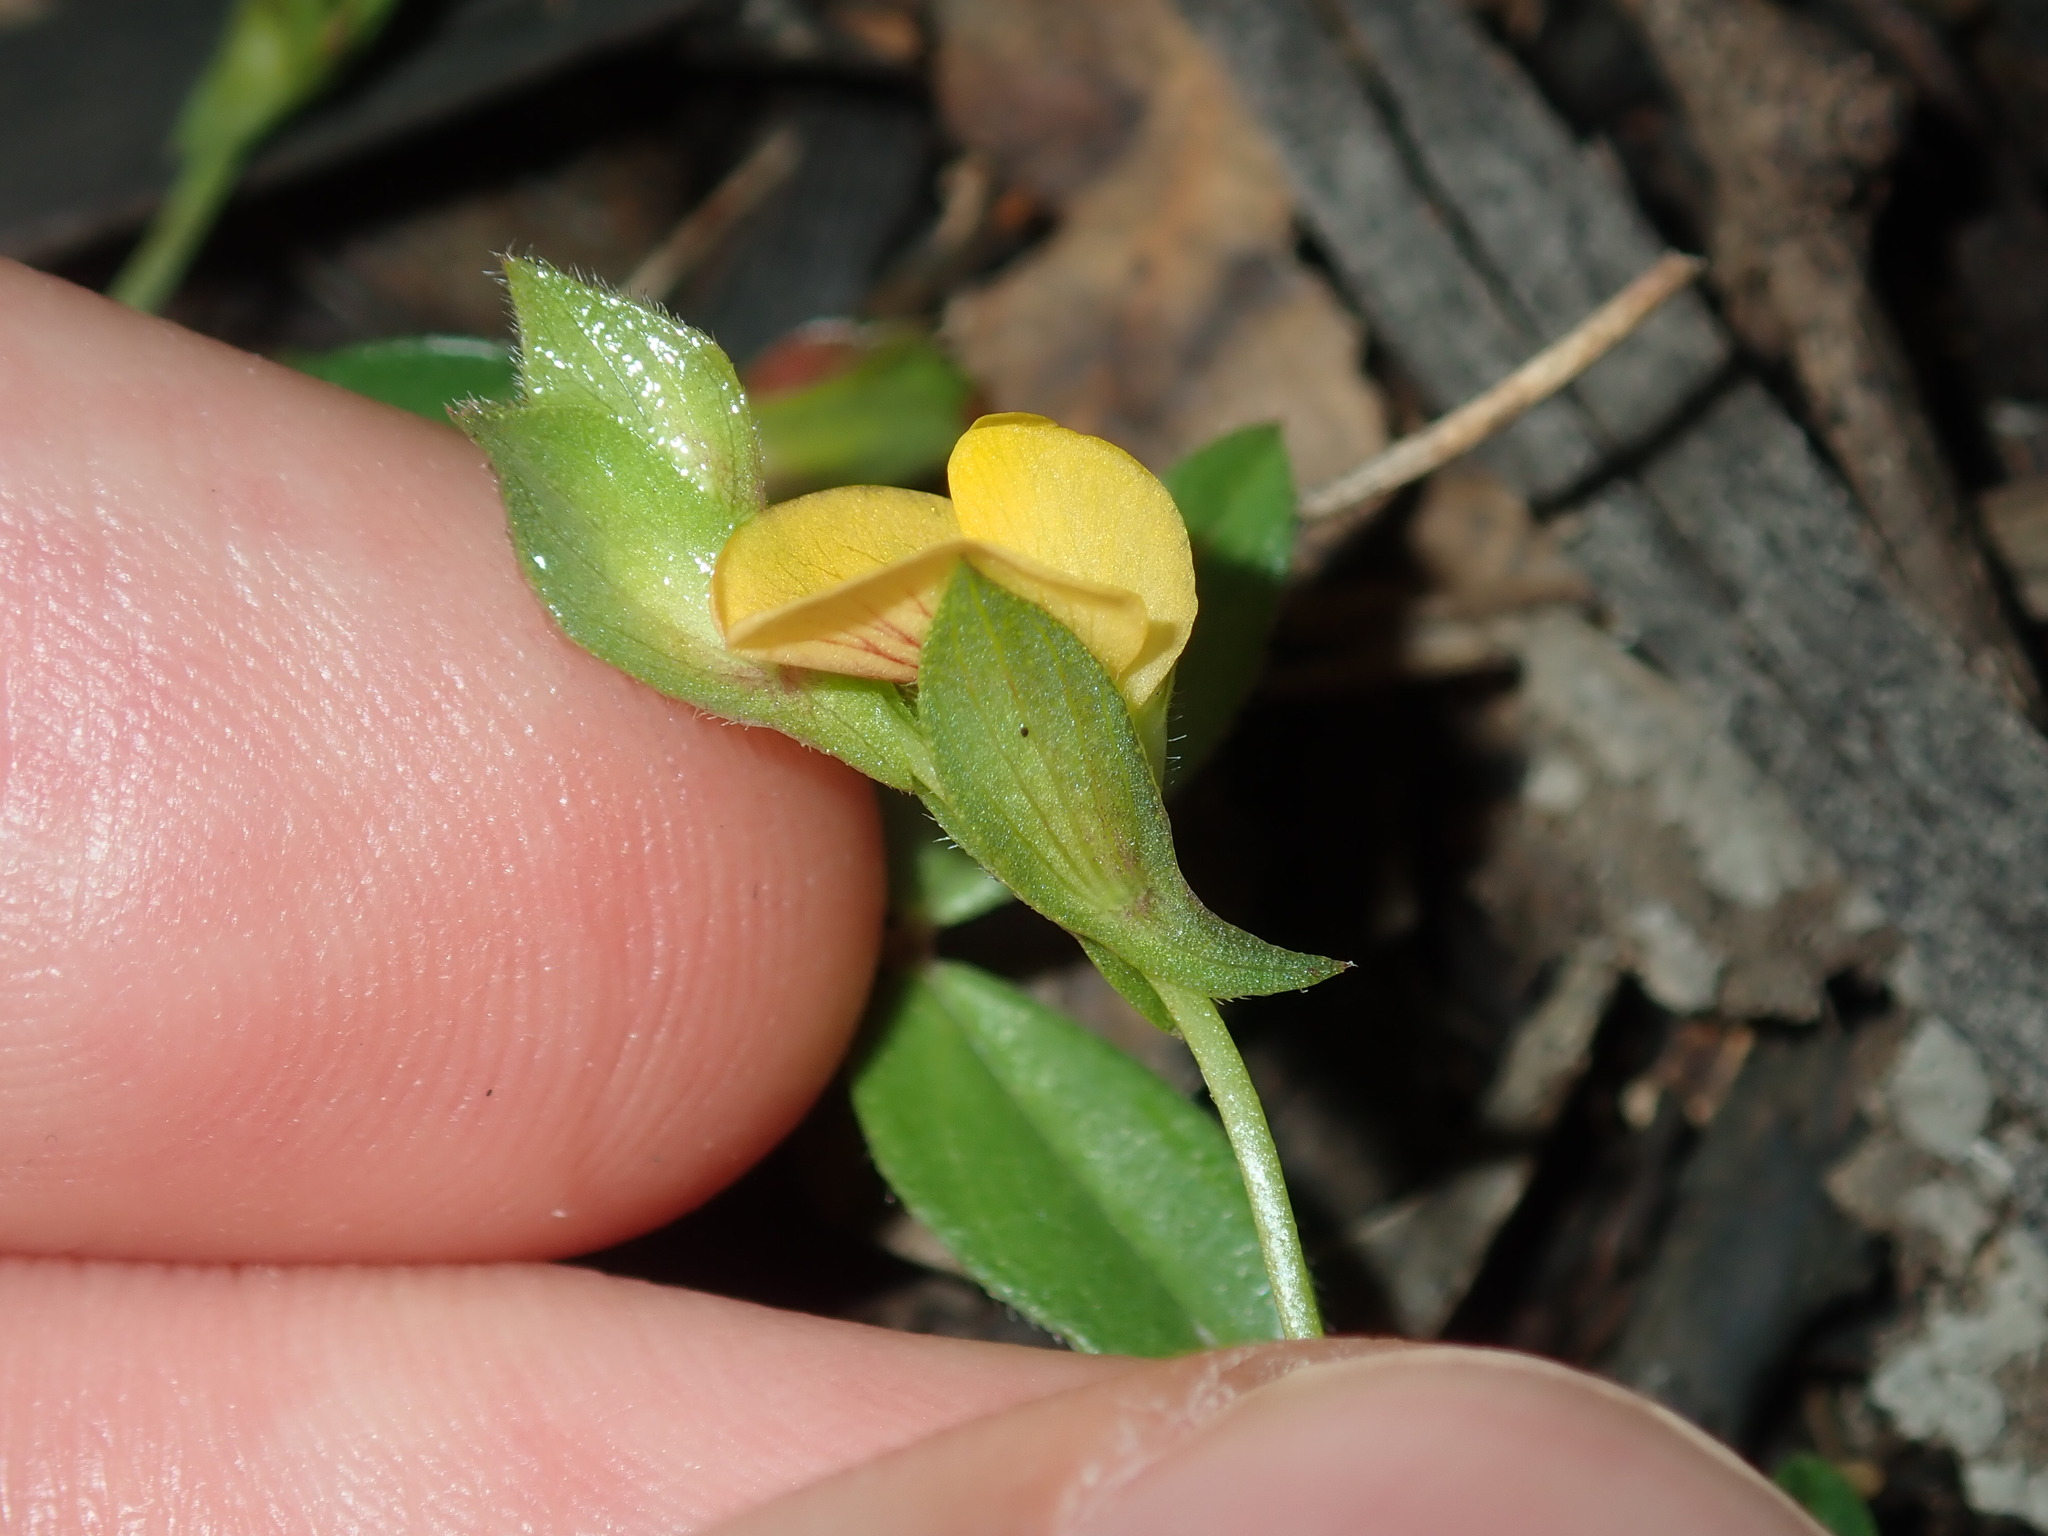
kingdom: Plantae
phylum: Tracheophyta
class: Magnoliopsida
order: Fabales
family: Fabaceae
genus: Zornia
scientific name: Zornia dyctiocarpa
